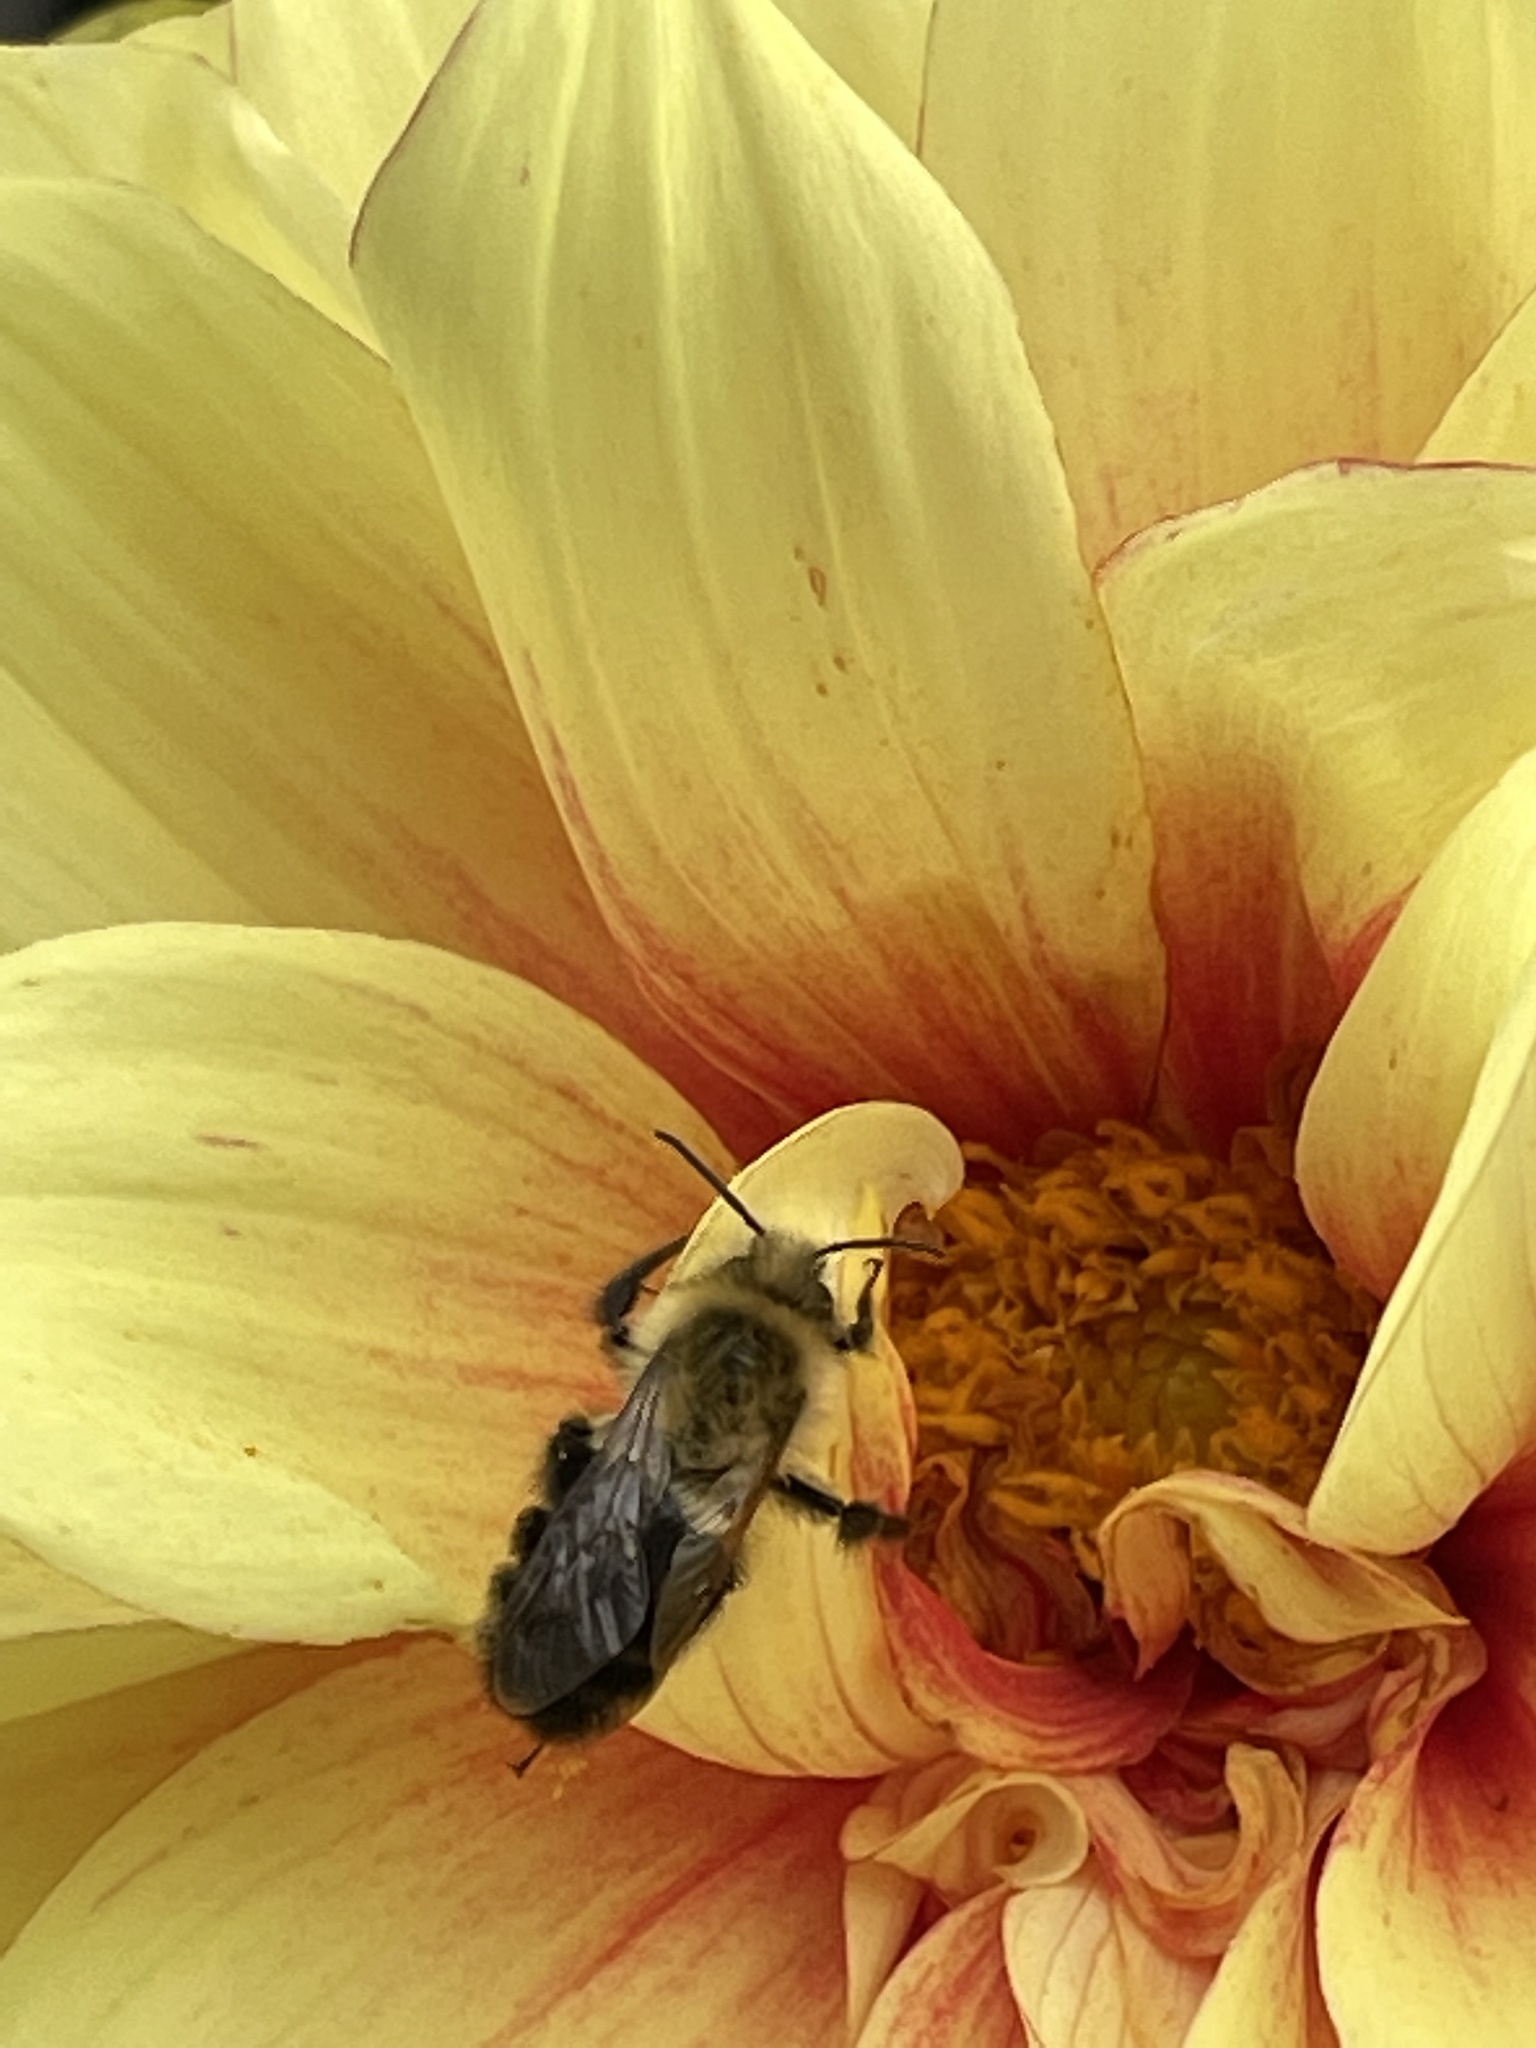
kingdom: Animalia
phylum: Arthropoda
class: Insecta
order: Hymenoptera
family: Apidae
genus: Bombus
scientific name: Bombus impatiens
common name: Common eastern bumble bee
